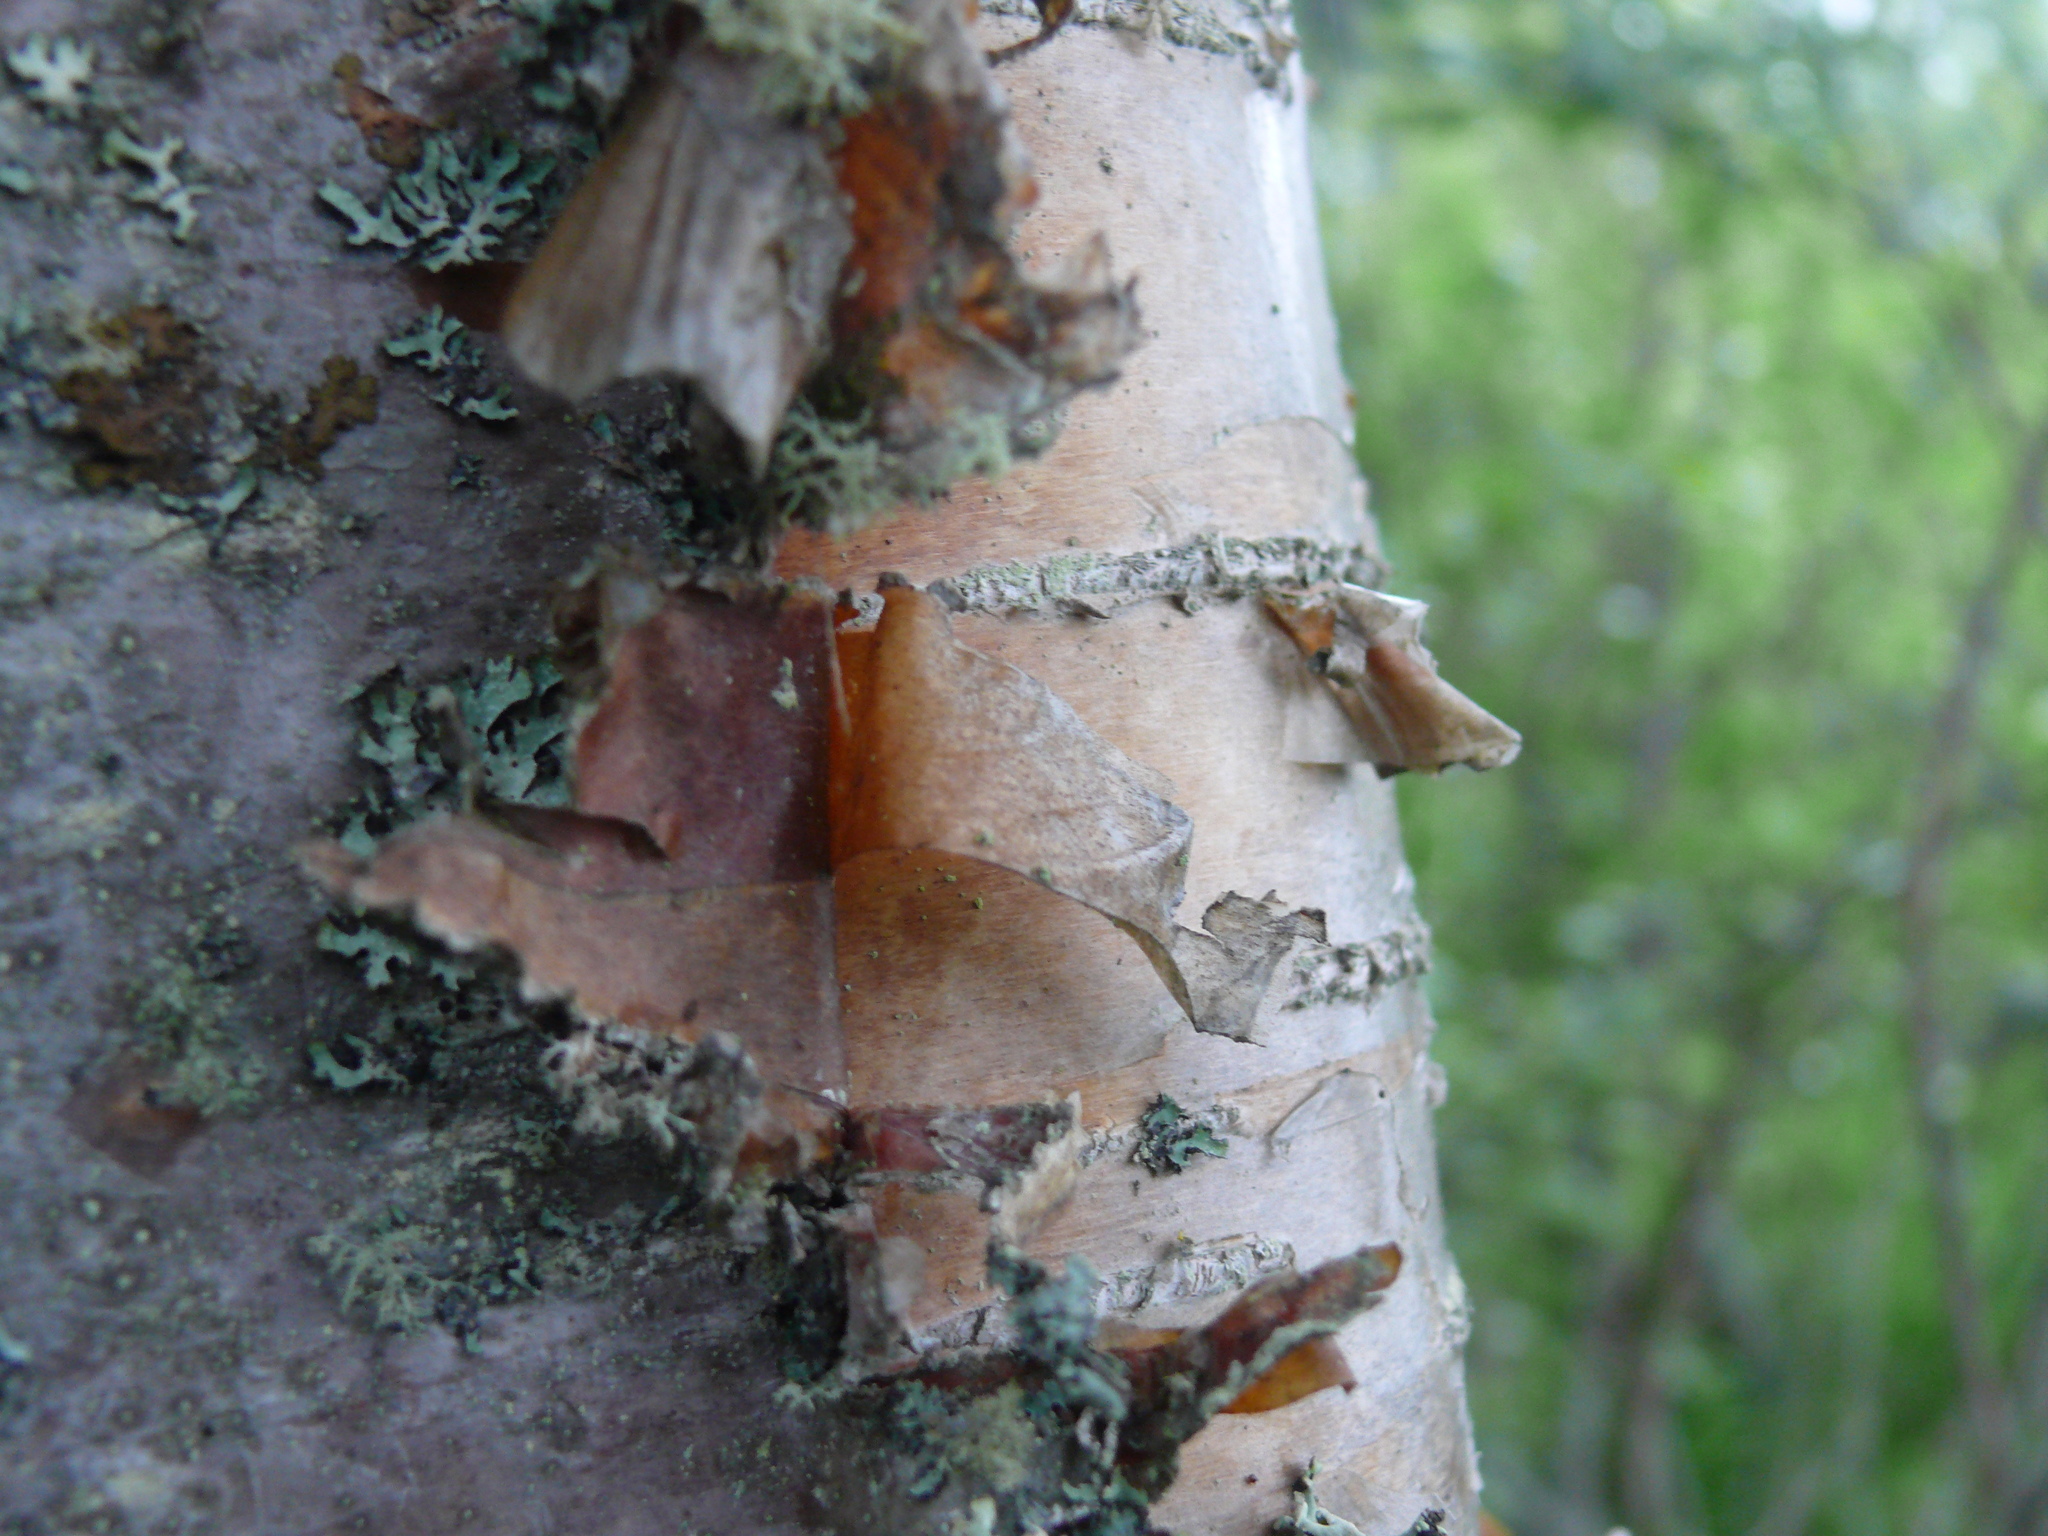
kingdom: Plantae
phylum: Tracheophyta
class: Magnoliopsida
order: Fagales
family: Betulaceae
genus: Betula
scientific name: Betula papyrifera
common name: Paper birch
